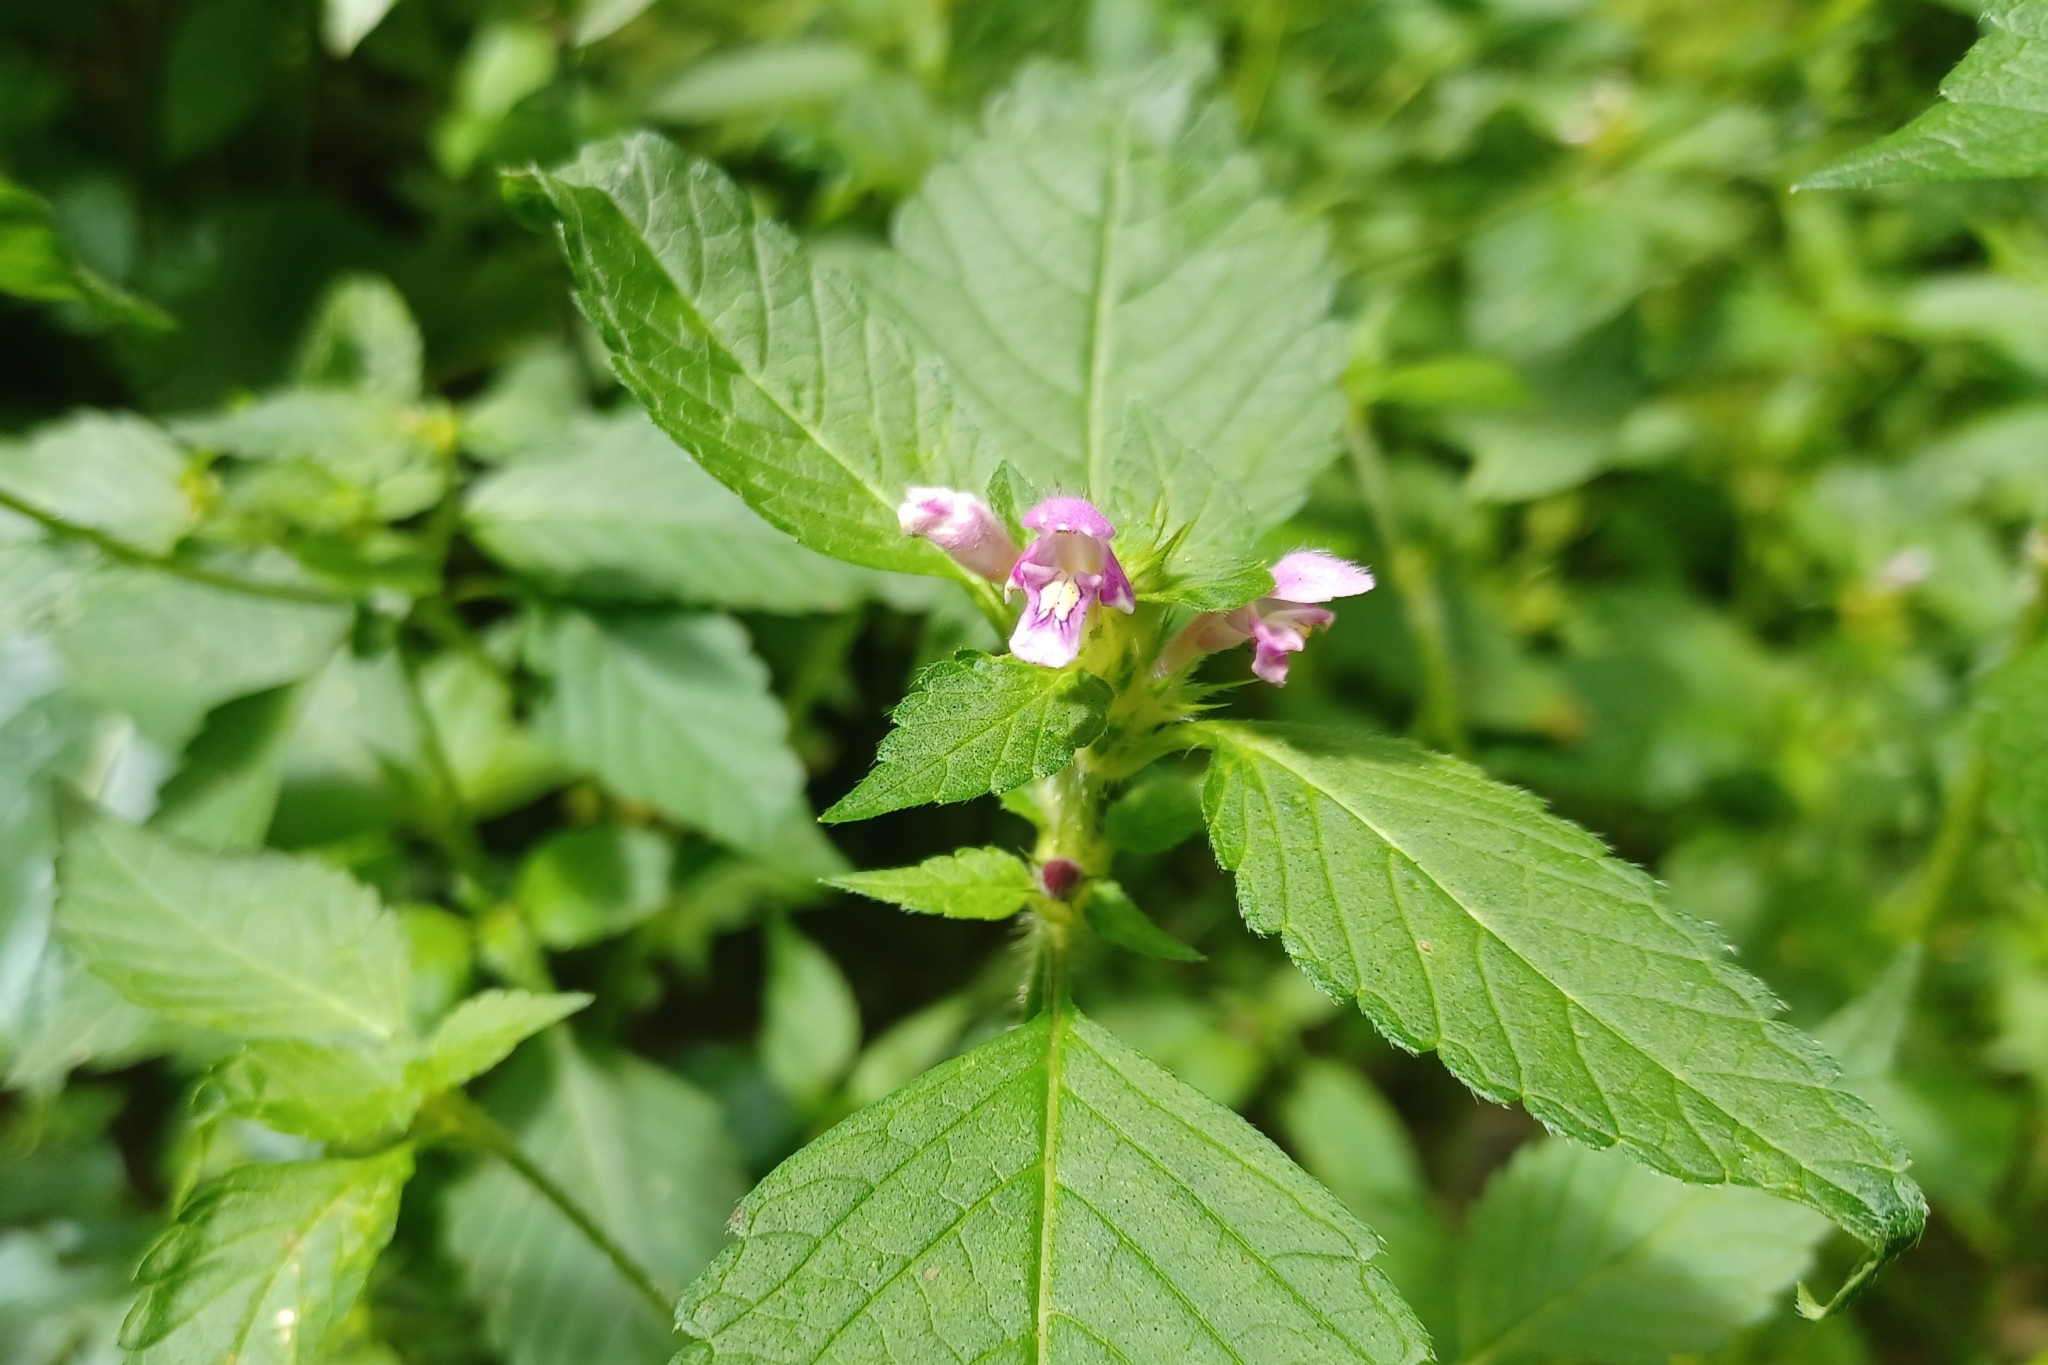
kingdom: Plantae
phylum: Tracheophyta
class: Magnoliopsida
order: Lamiales
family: Lamiaceae
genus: Galeopsis
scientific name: Galeopsis tetrahit
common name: Common hemp-nettle
